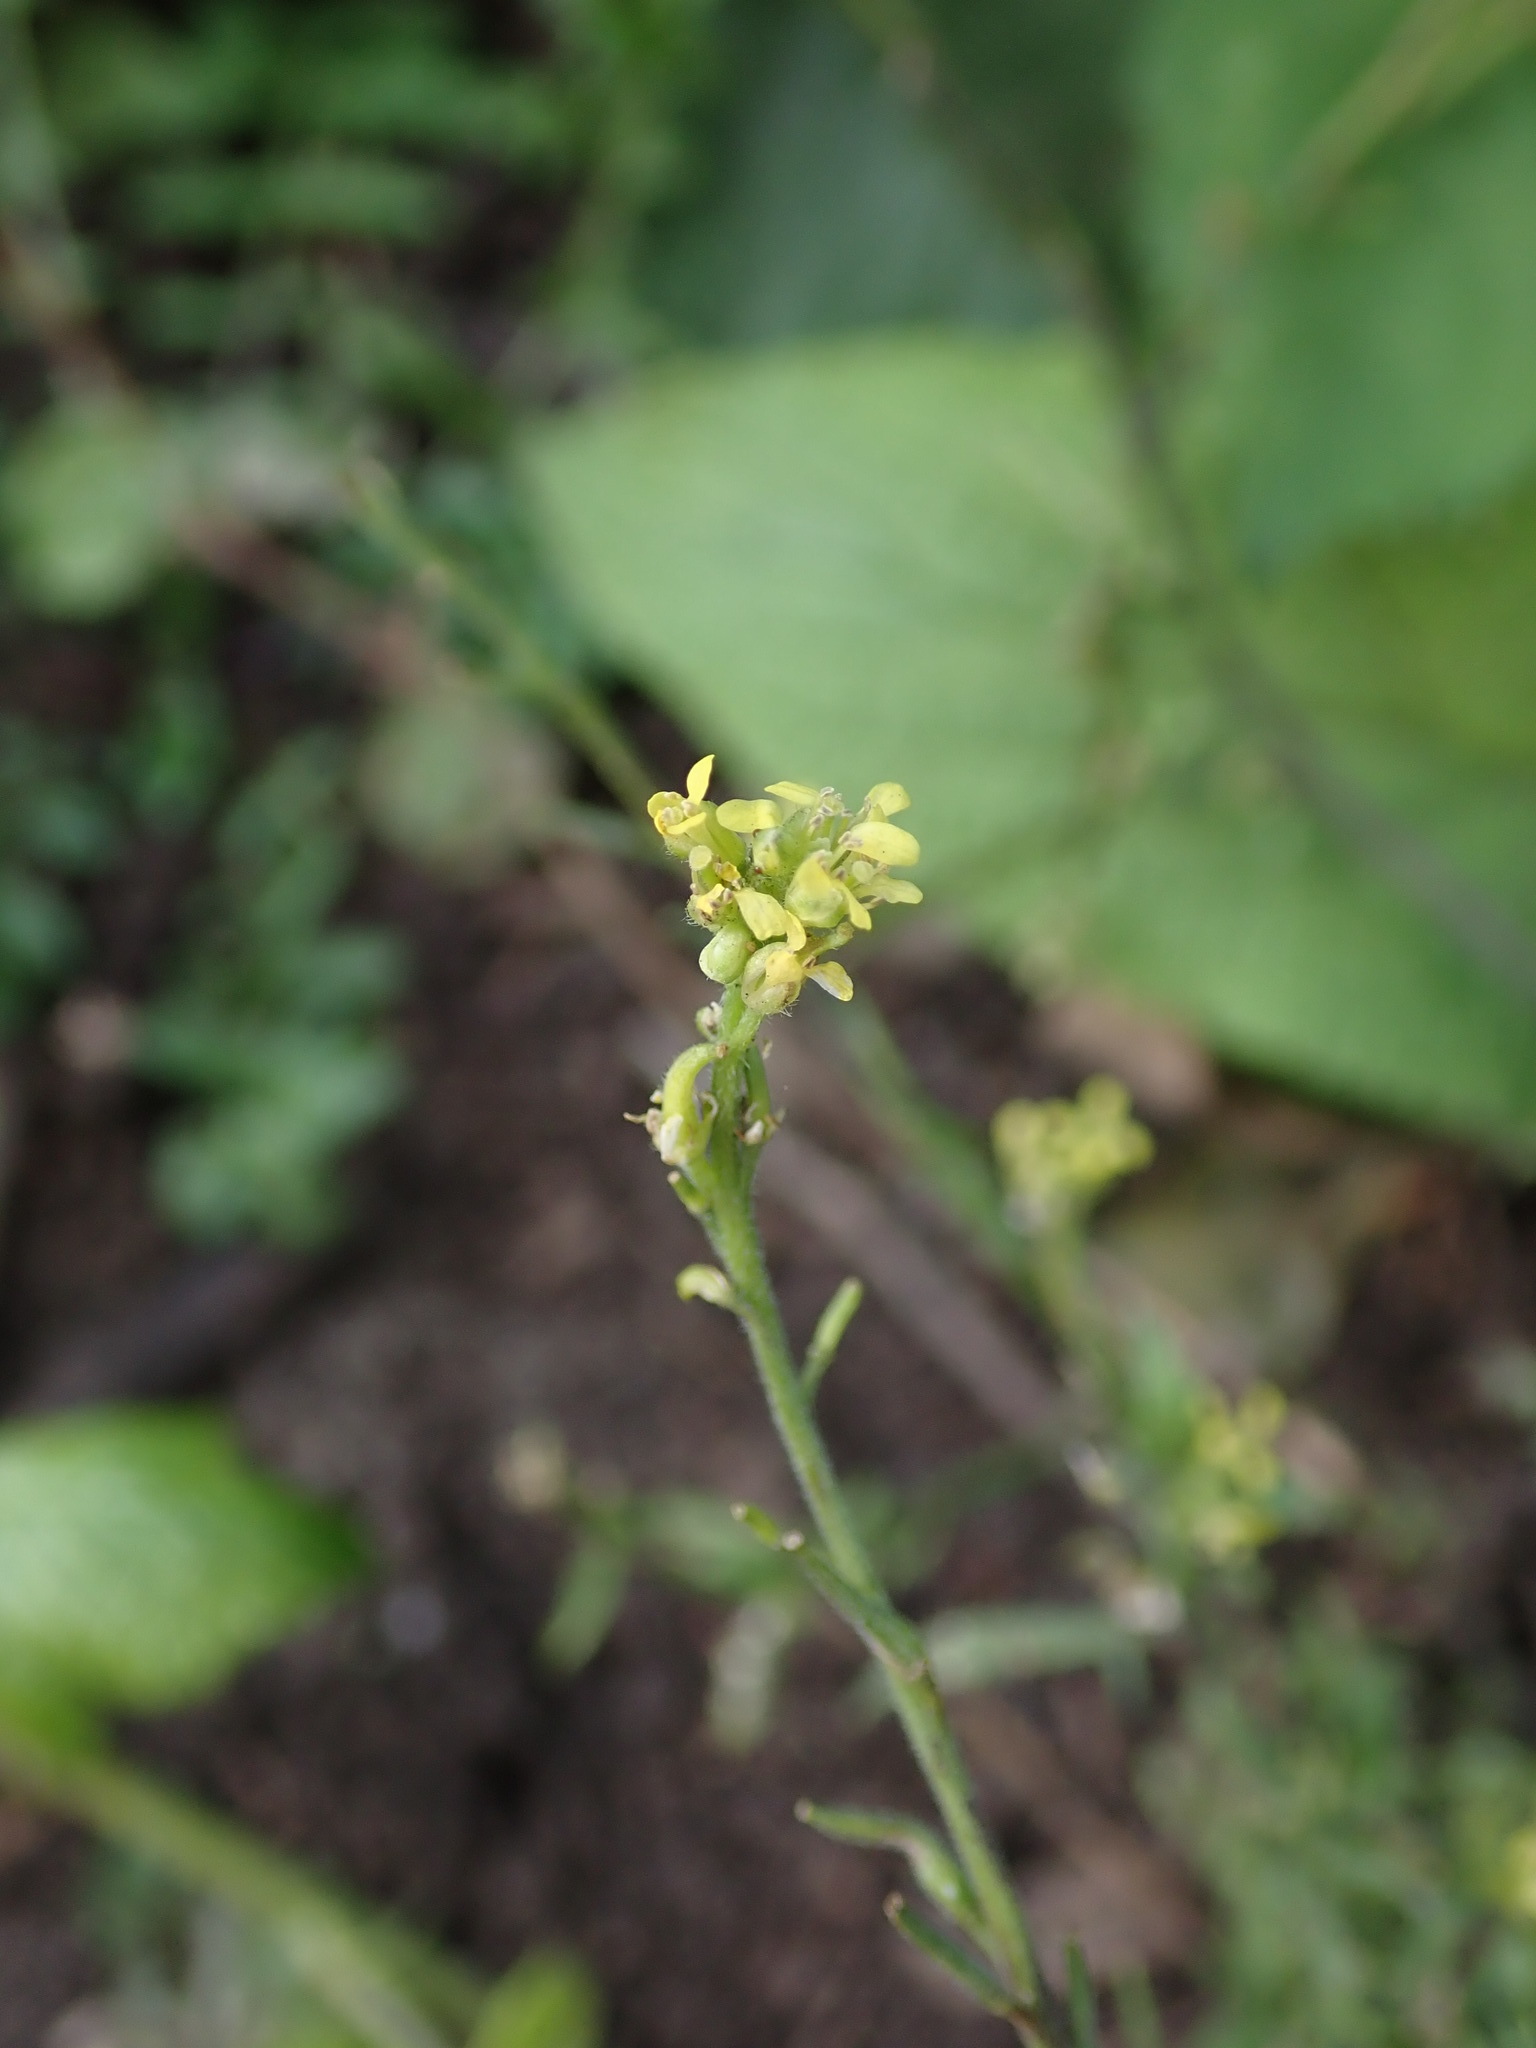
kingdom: Plantae
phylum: Tracheophyta
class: Magnoliopsida
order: Brassicales
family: Brassicaceae
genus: Sisymbrium
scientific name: Sisymbrium officinale
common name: Hedge mustard
